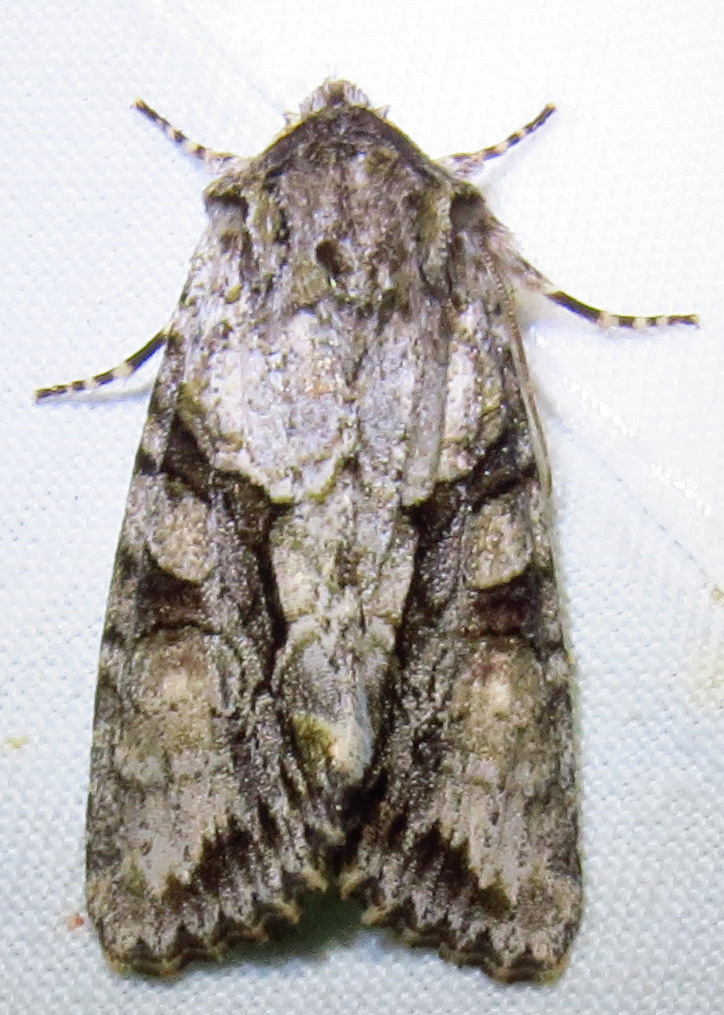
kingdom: Animalia
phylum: Arthropoda
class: Insecta
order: Lepidoptera
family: Noctuidae
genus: Achatia
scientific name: Achatia distincta
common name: Distinct quaker
